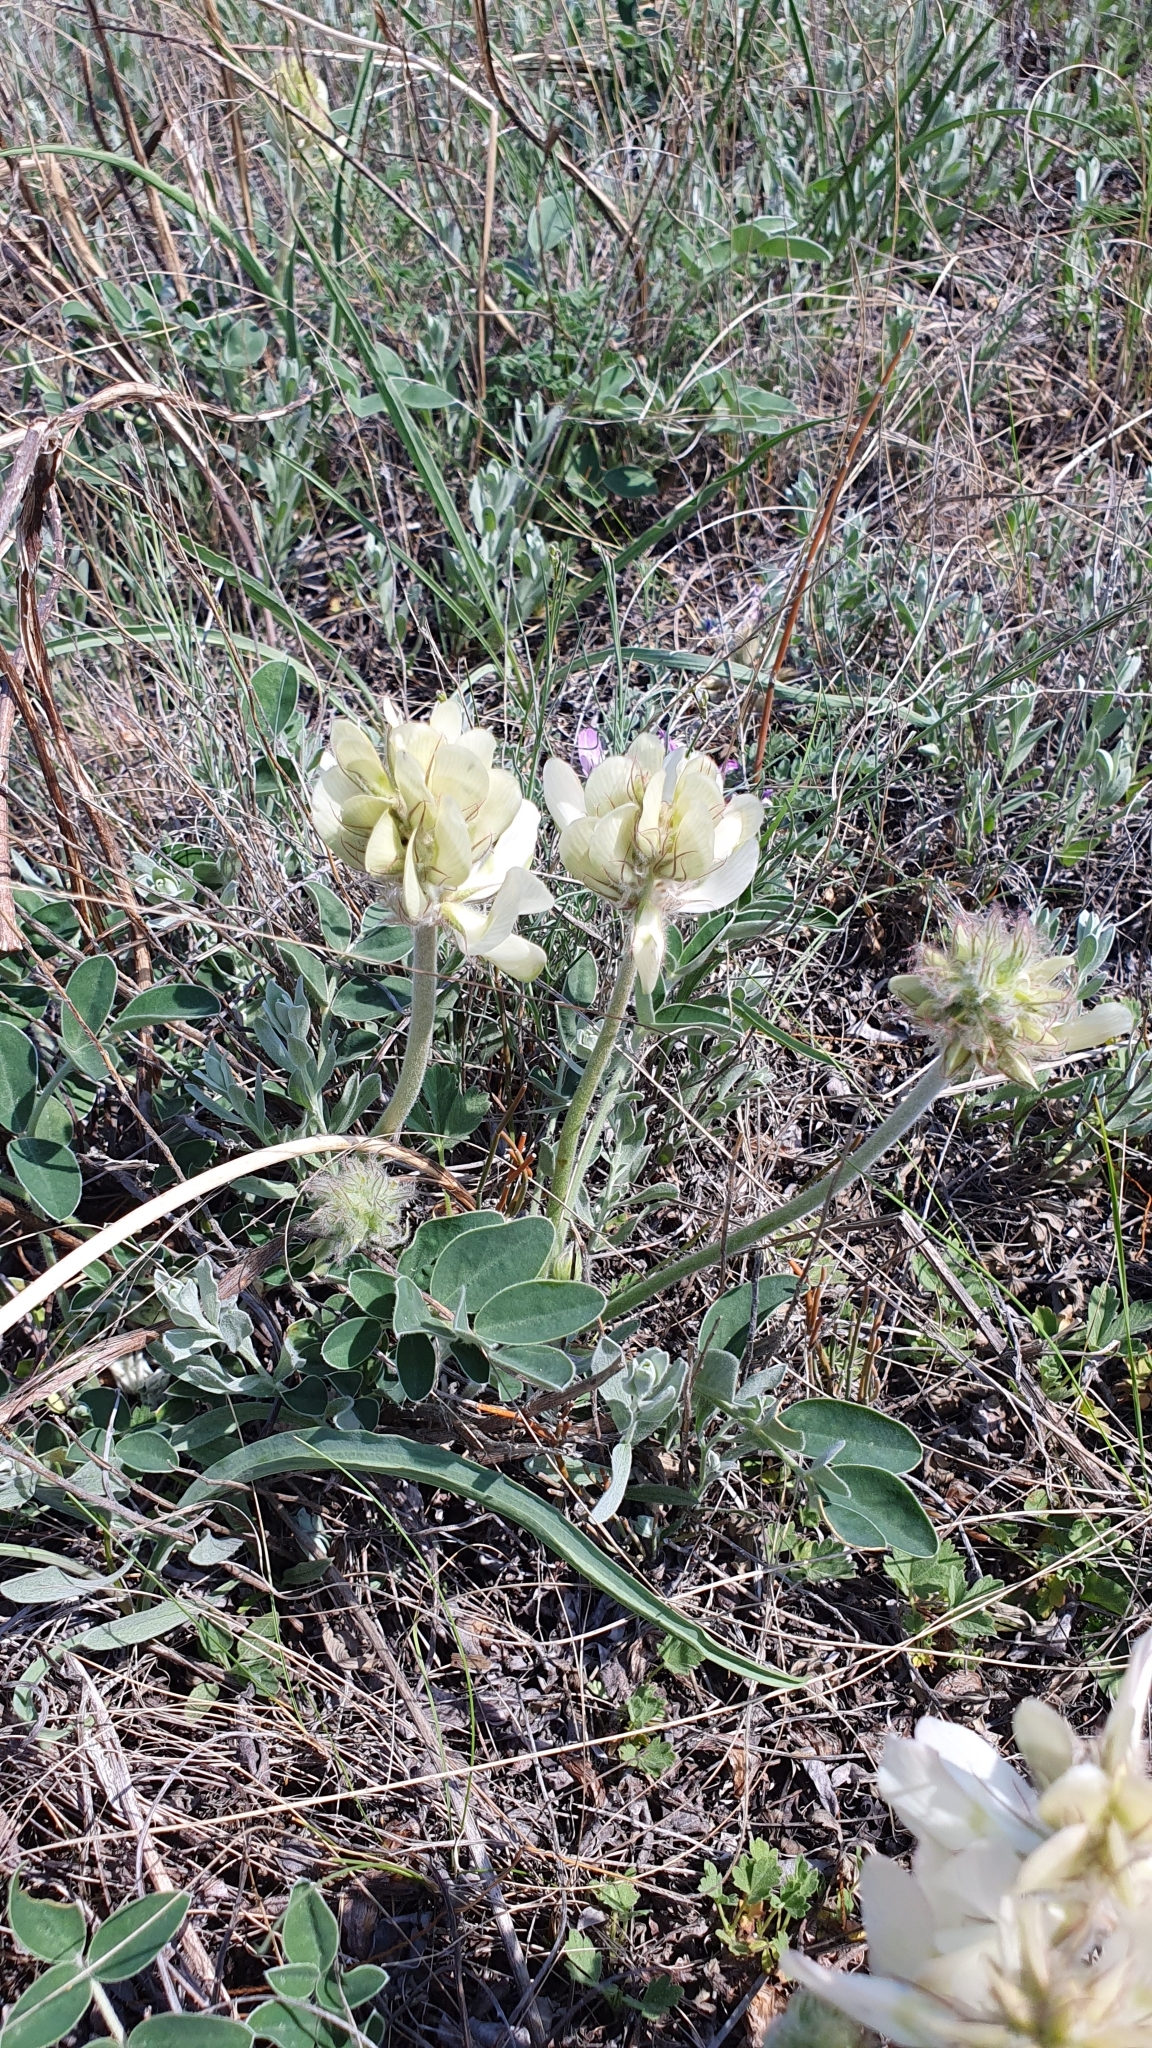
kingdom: Plantae
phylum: Tracheophyta
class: Magnoliopsida
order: Fabales
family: Fabaceae
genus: Hedysarum
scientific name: Hedysarum grandiflorum
